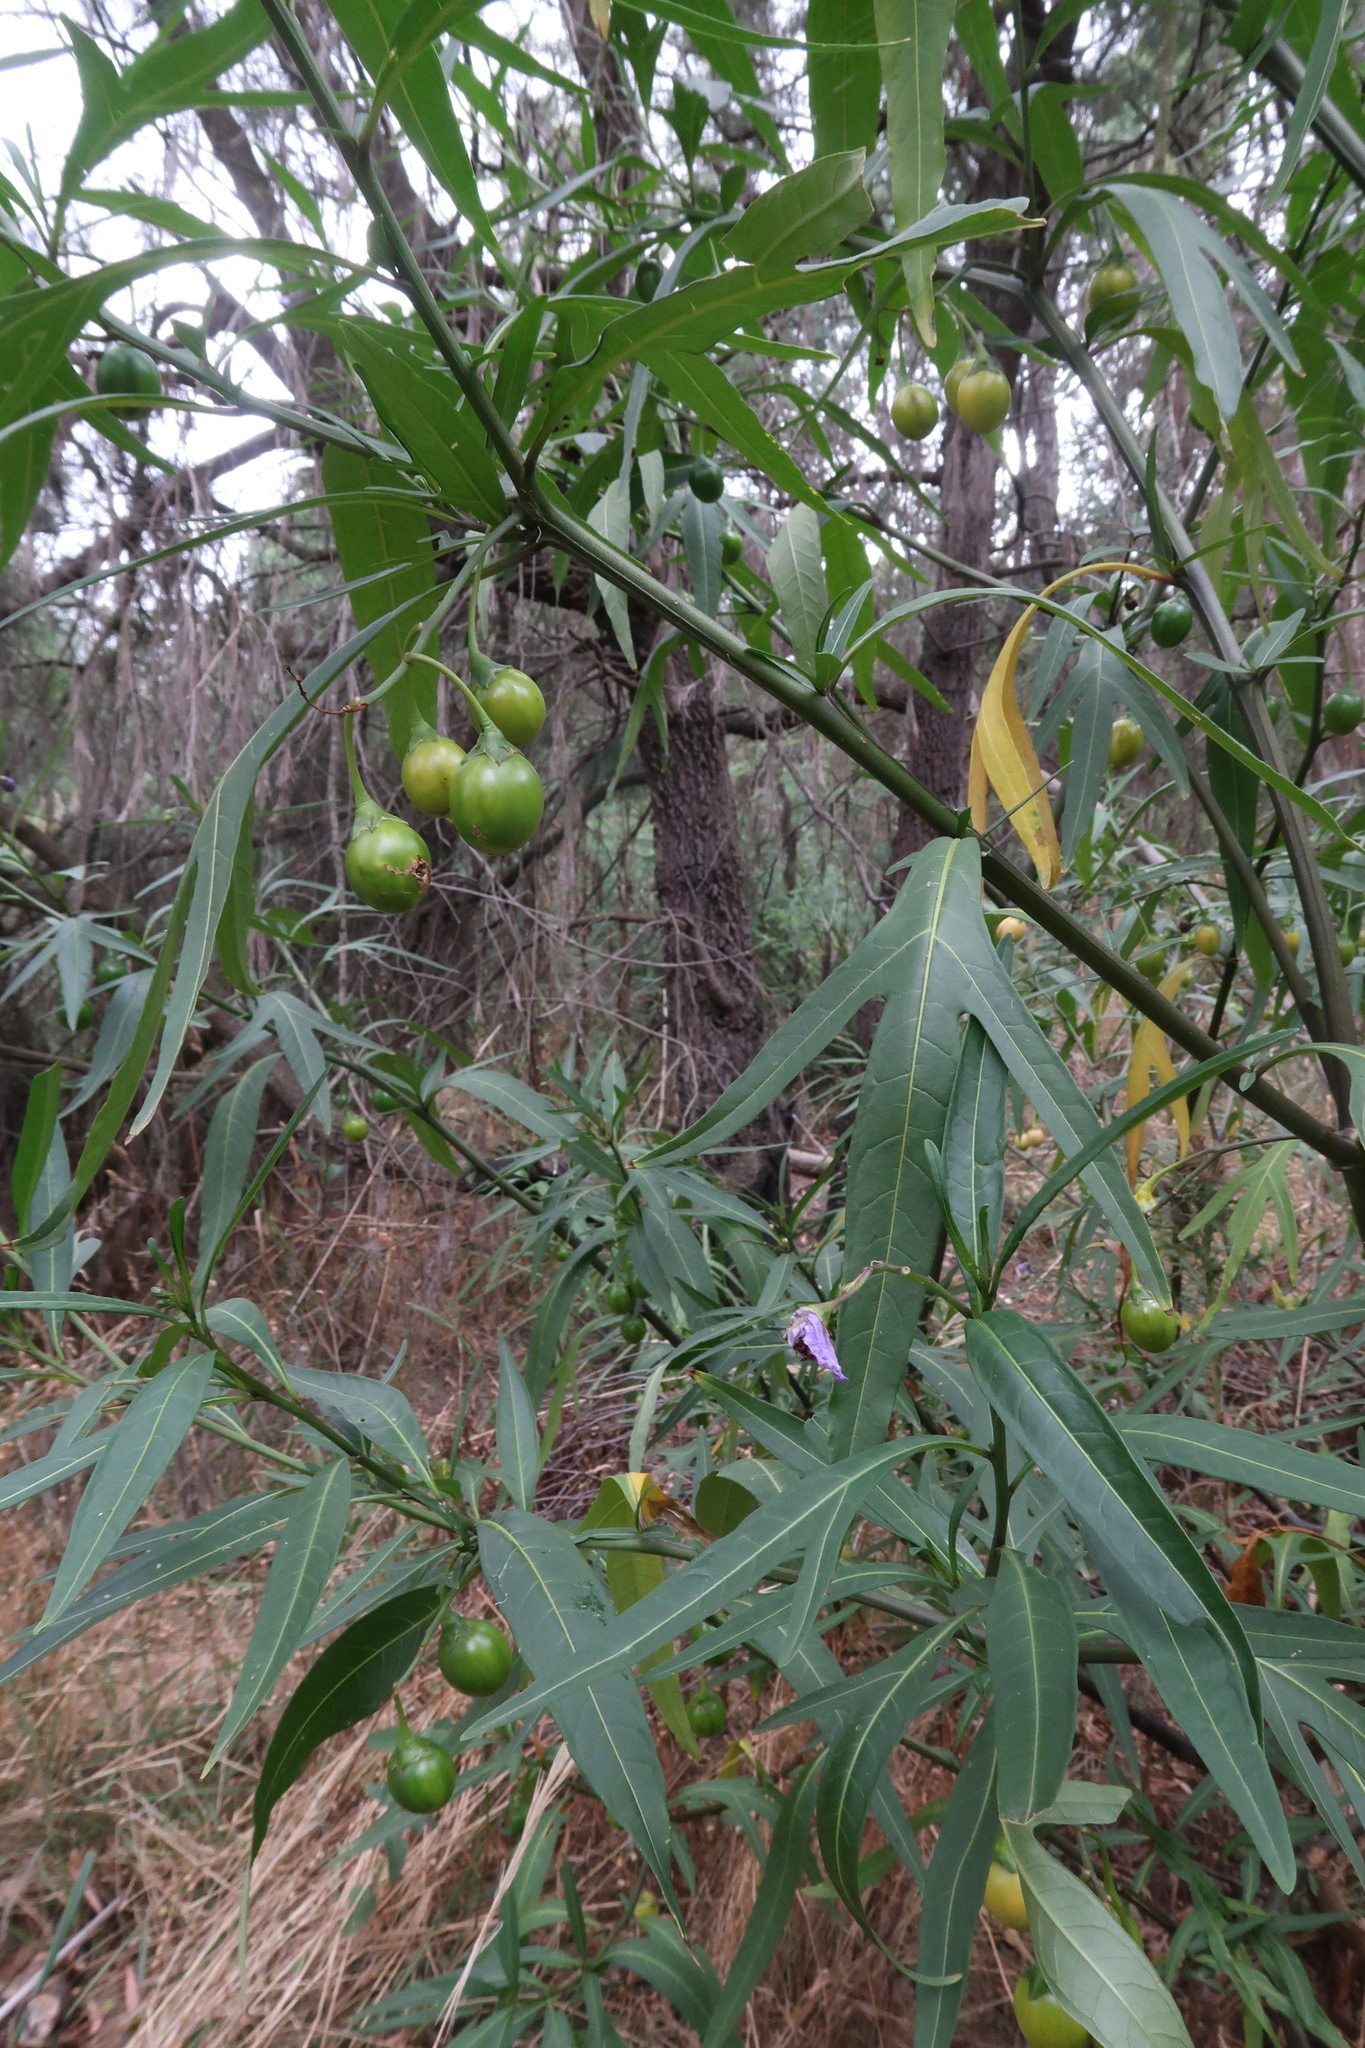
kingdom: Plantae
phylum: Tracheophyta
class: Magnoliopsida
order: Solanales
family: Solanaceae
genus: Solanum
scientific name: Solanum laciniatum
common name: Kangaroo-apple
